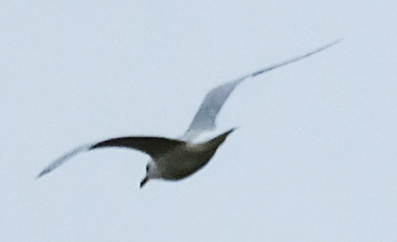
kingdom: Animalia
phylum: Chordata
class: Aves
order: Charadriiformes
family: Laridae
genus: Larus
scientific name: Larus delawarensis
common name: Ring-billed gull
